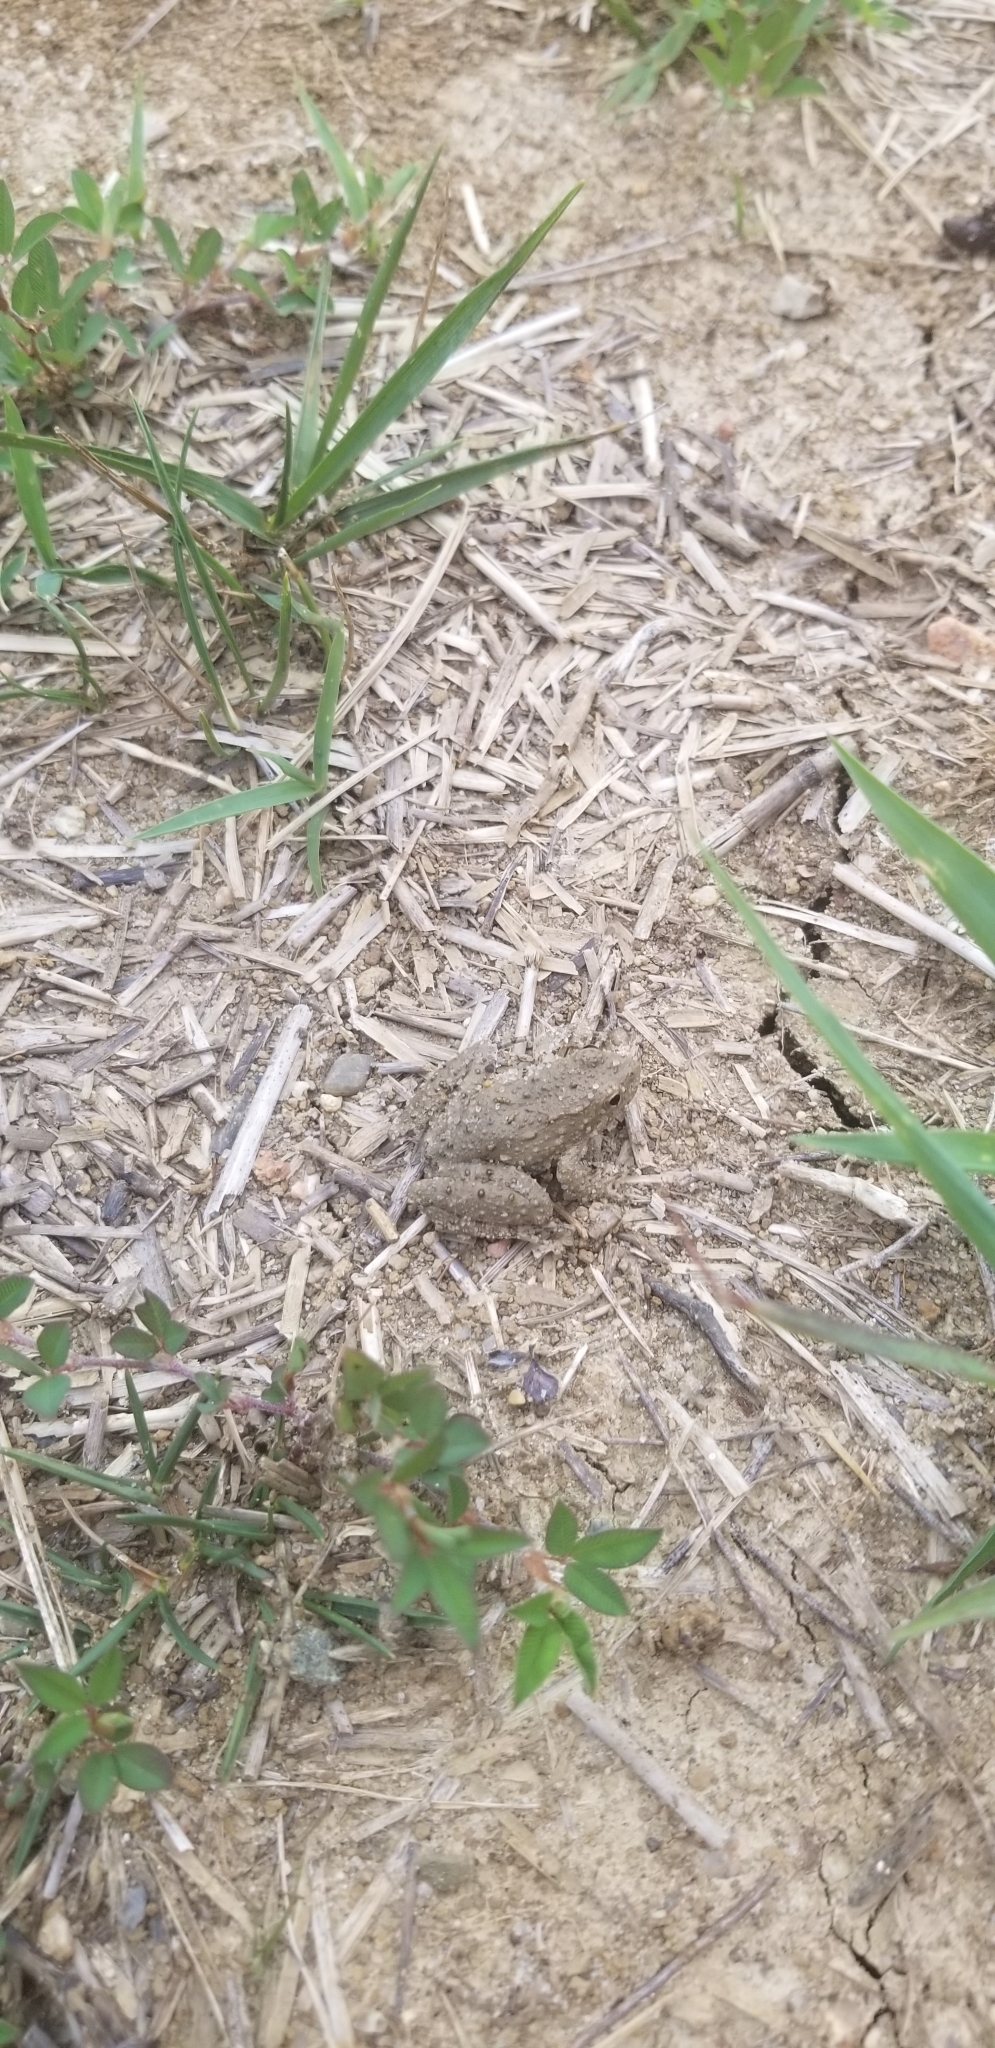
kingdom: Animalia
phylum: Chordata
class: Amphibia
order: Anura
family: Hylidae
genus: Acris
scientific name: Acris blanchardi
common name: Blanchard's cricket frog
